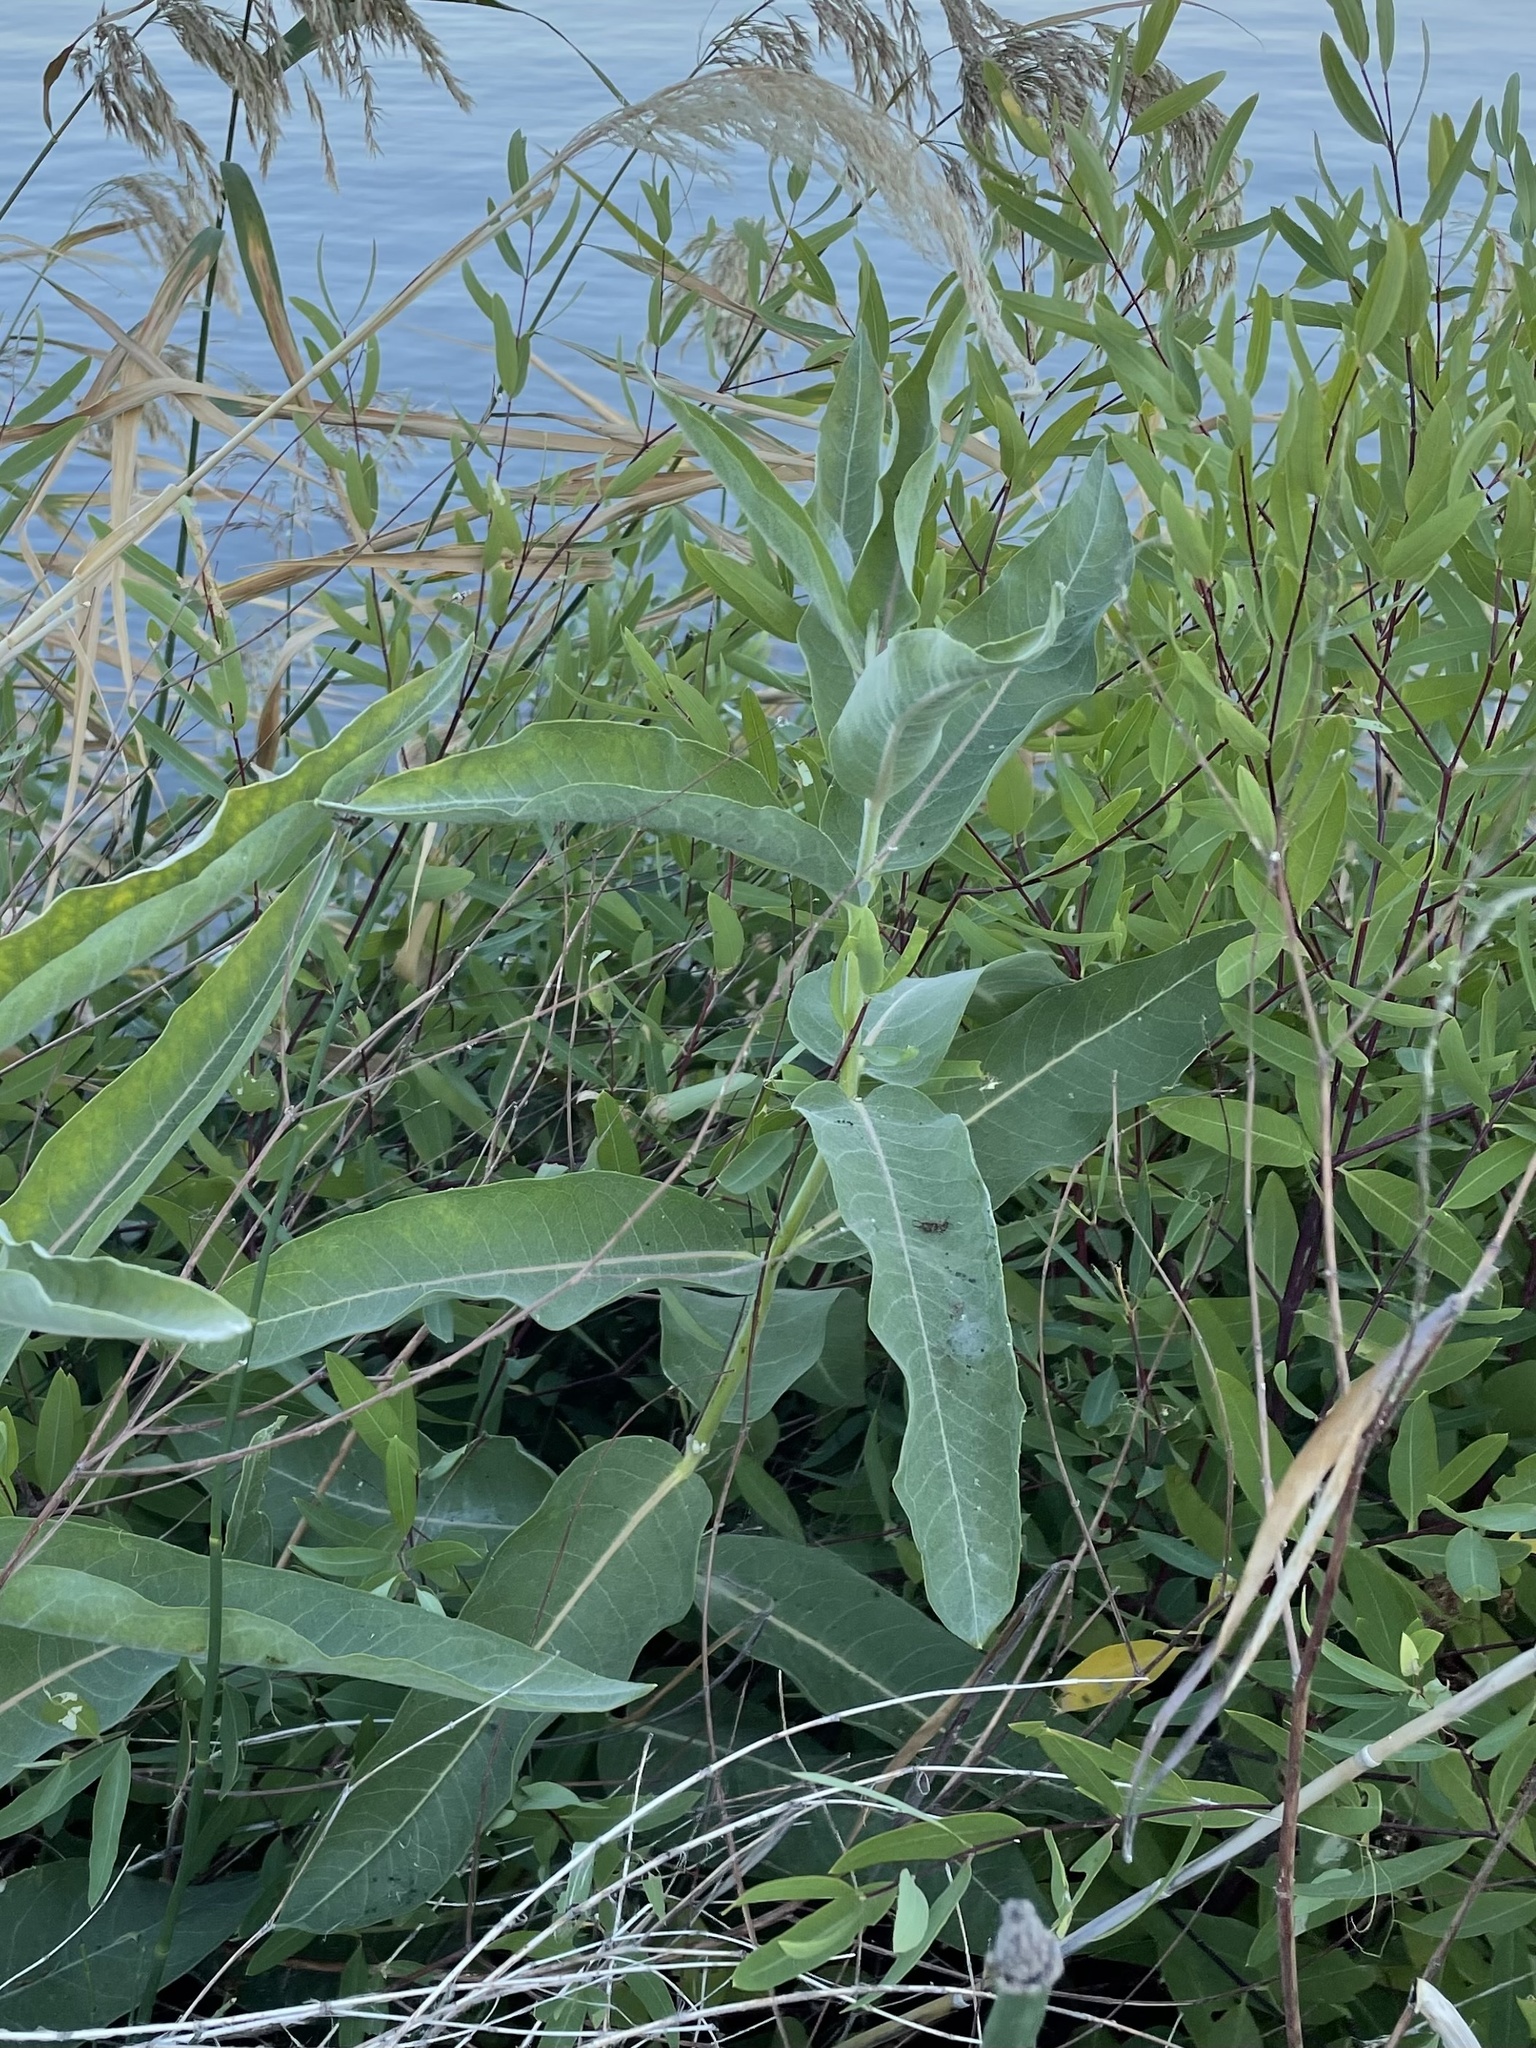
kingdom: Plantae
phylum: Tracheophyta
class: Magnoliopsida
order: Gentianales
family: Apocynaceae
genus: Asclepias
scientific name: Asclepias speciosa
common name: Showy milkweed
